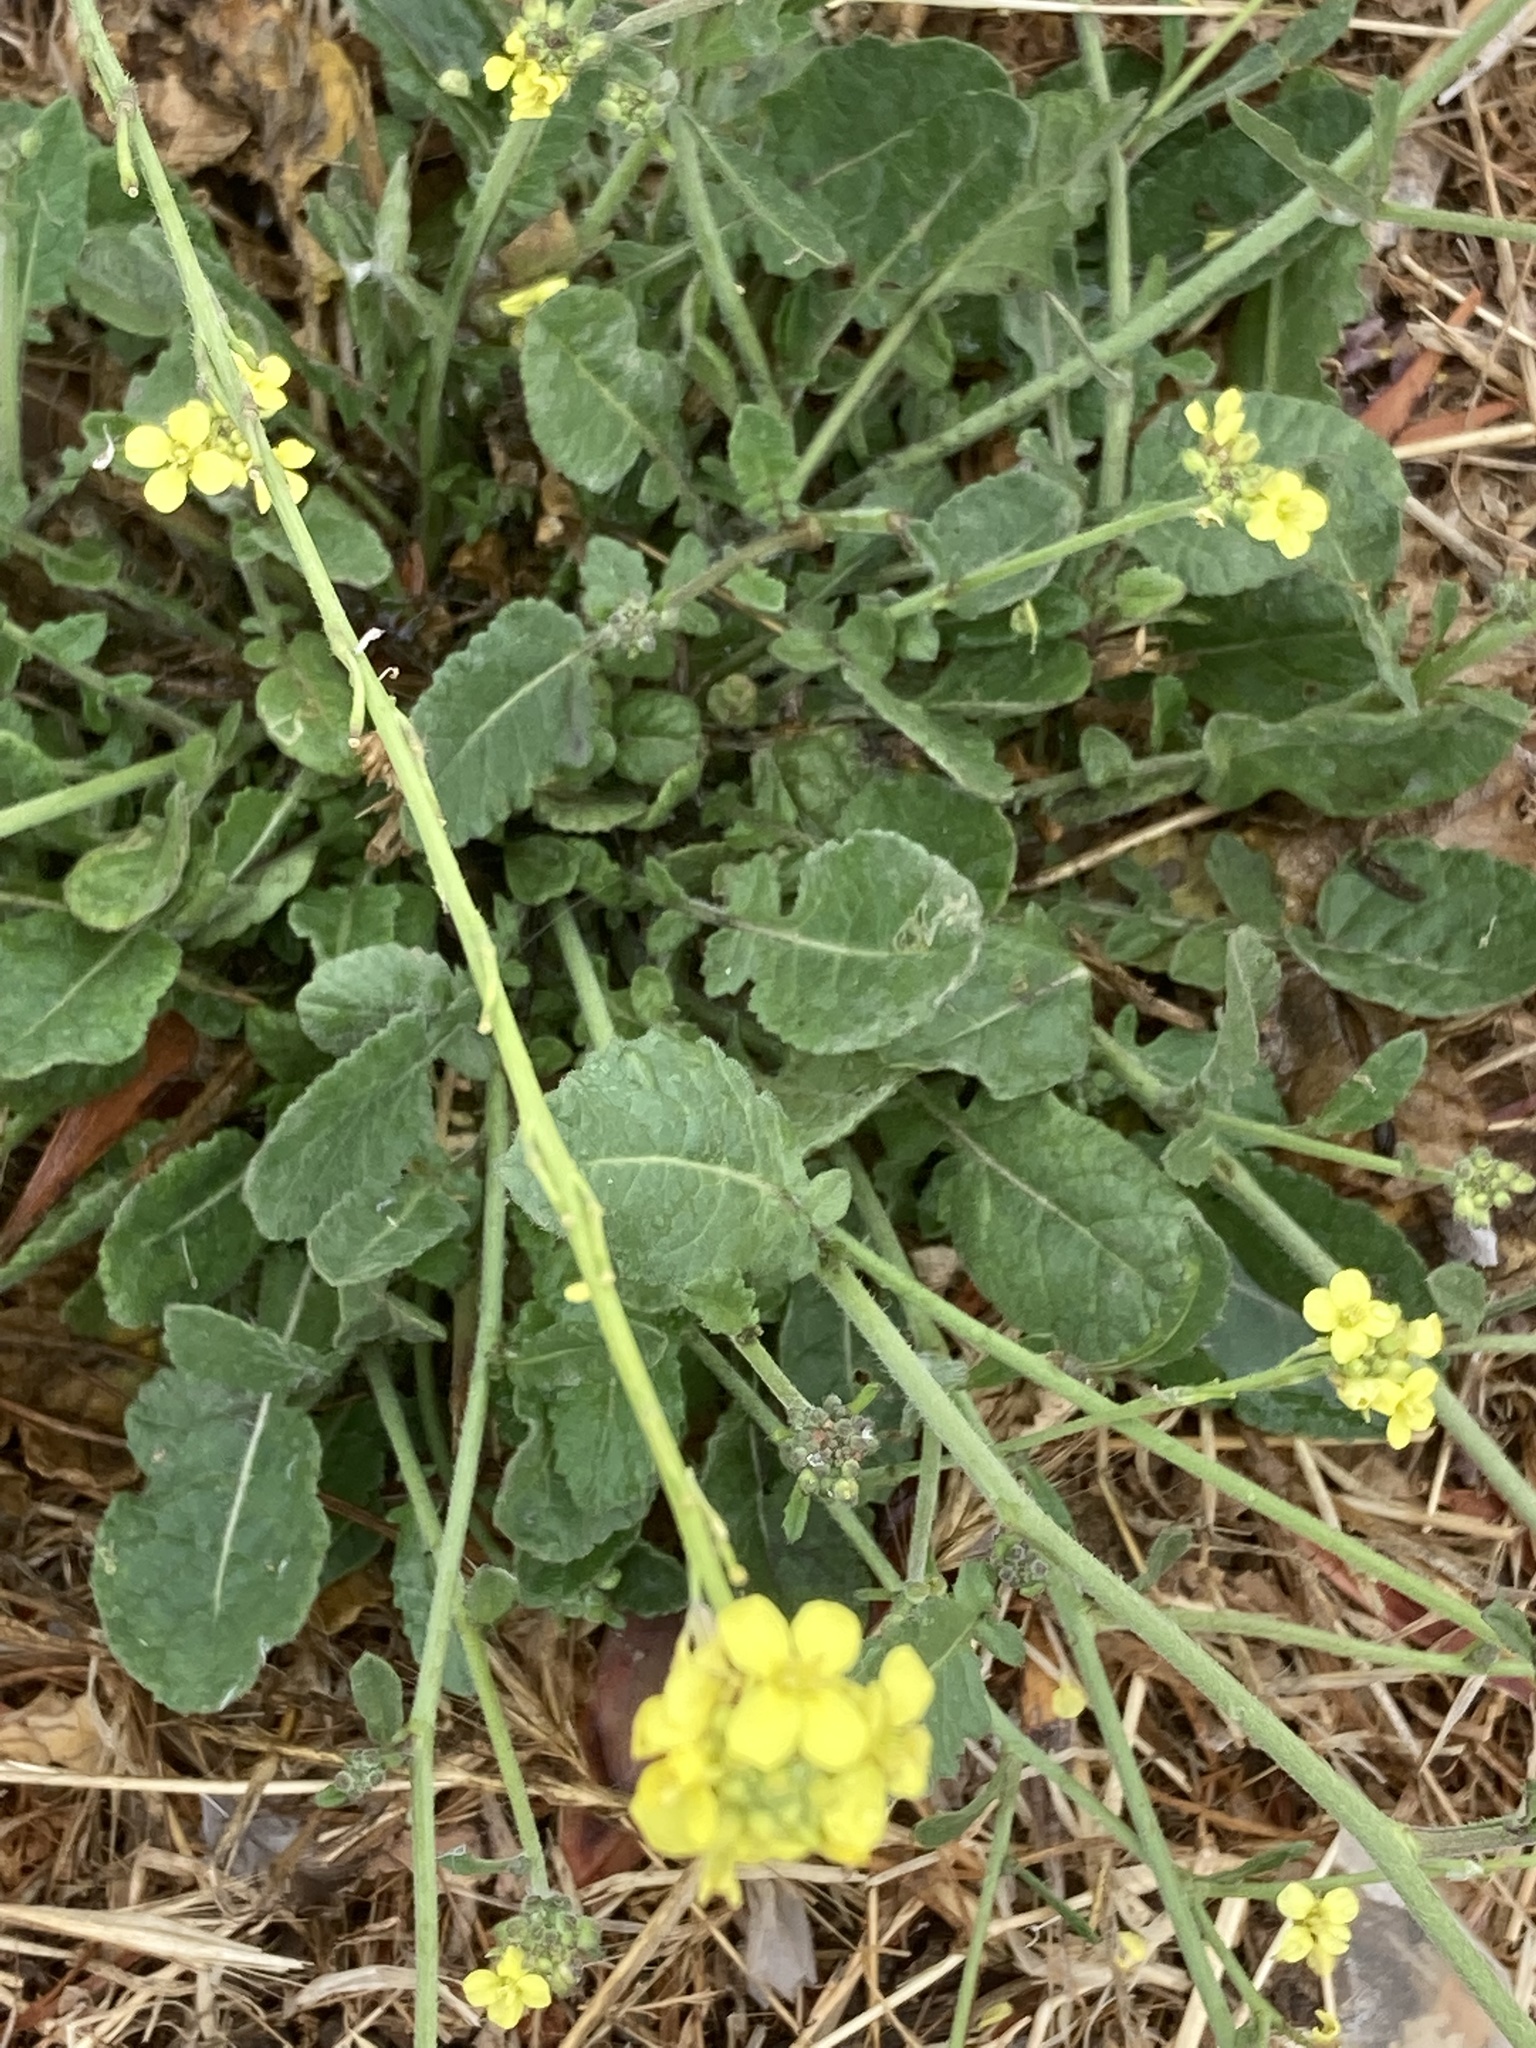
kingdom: Plantae
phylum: Tracheophyta
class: Magnoliopsida
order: Brassicales
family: Brassicaceae
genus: Hirschfeldia
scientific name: Hirschfeldia incana
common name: Hoary mustard
